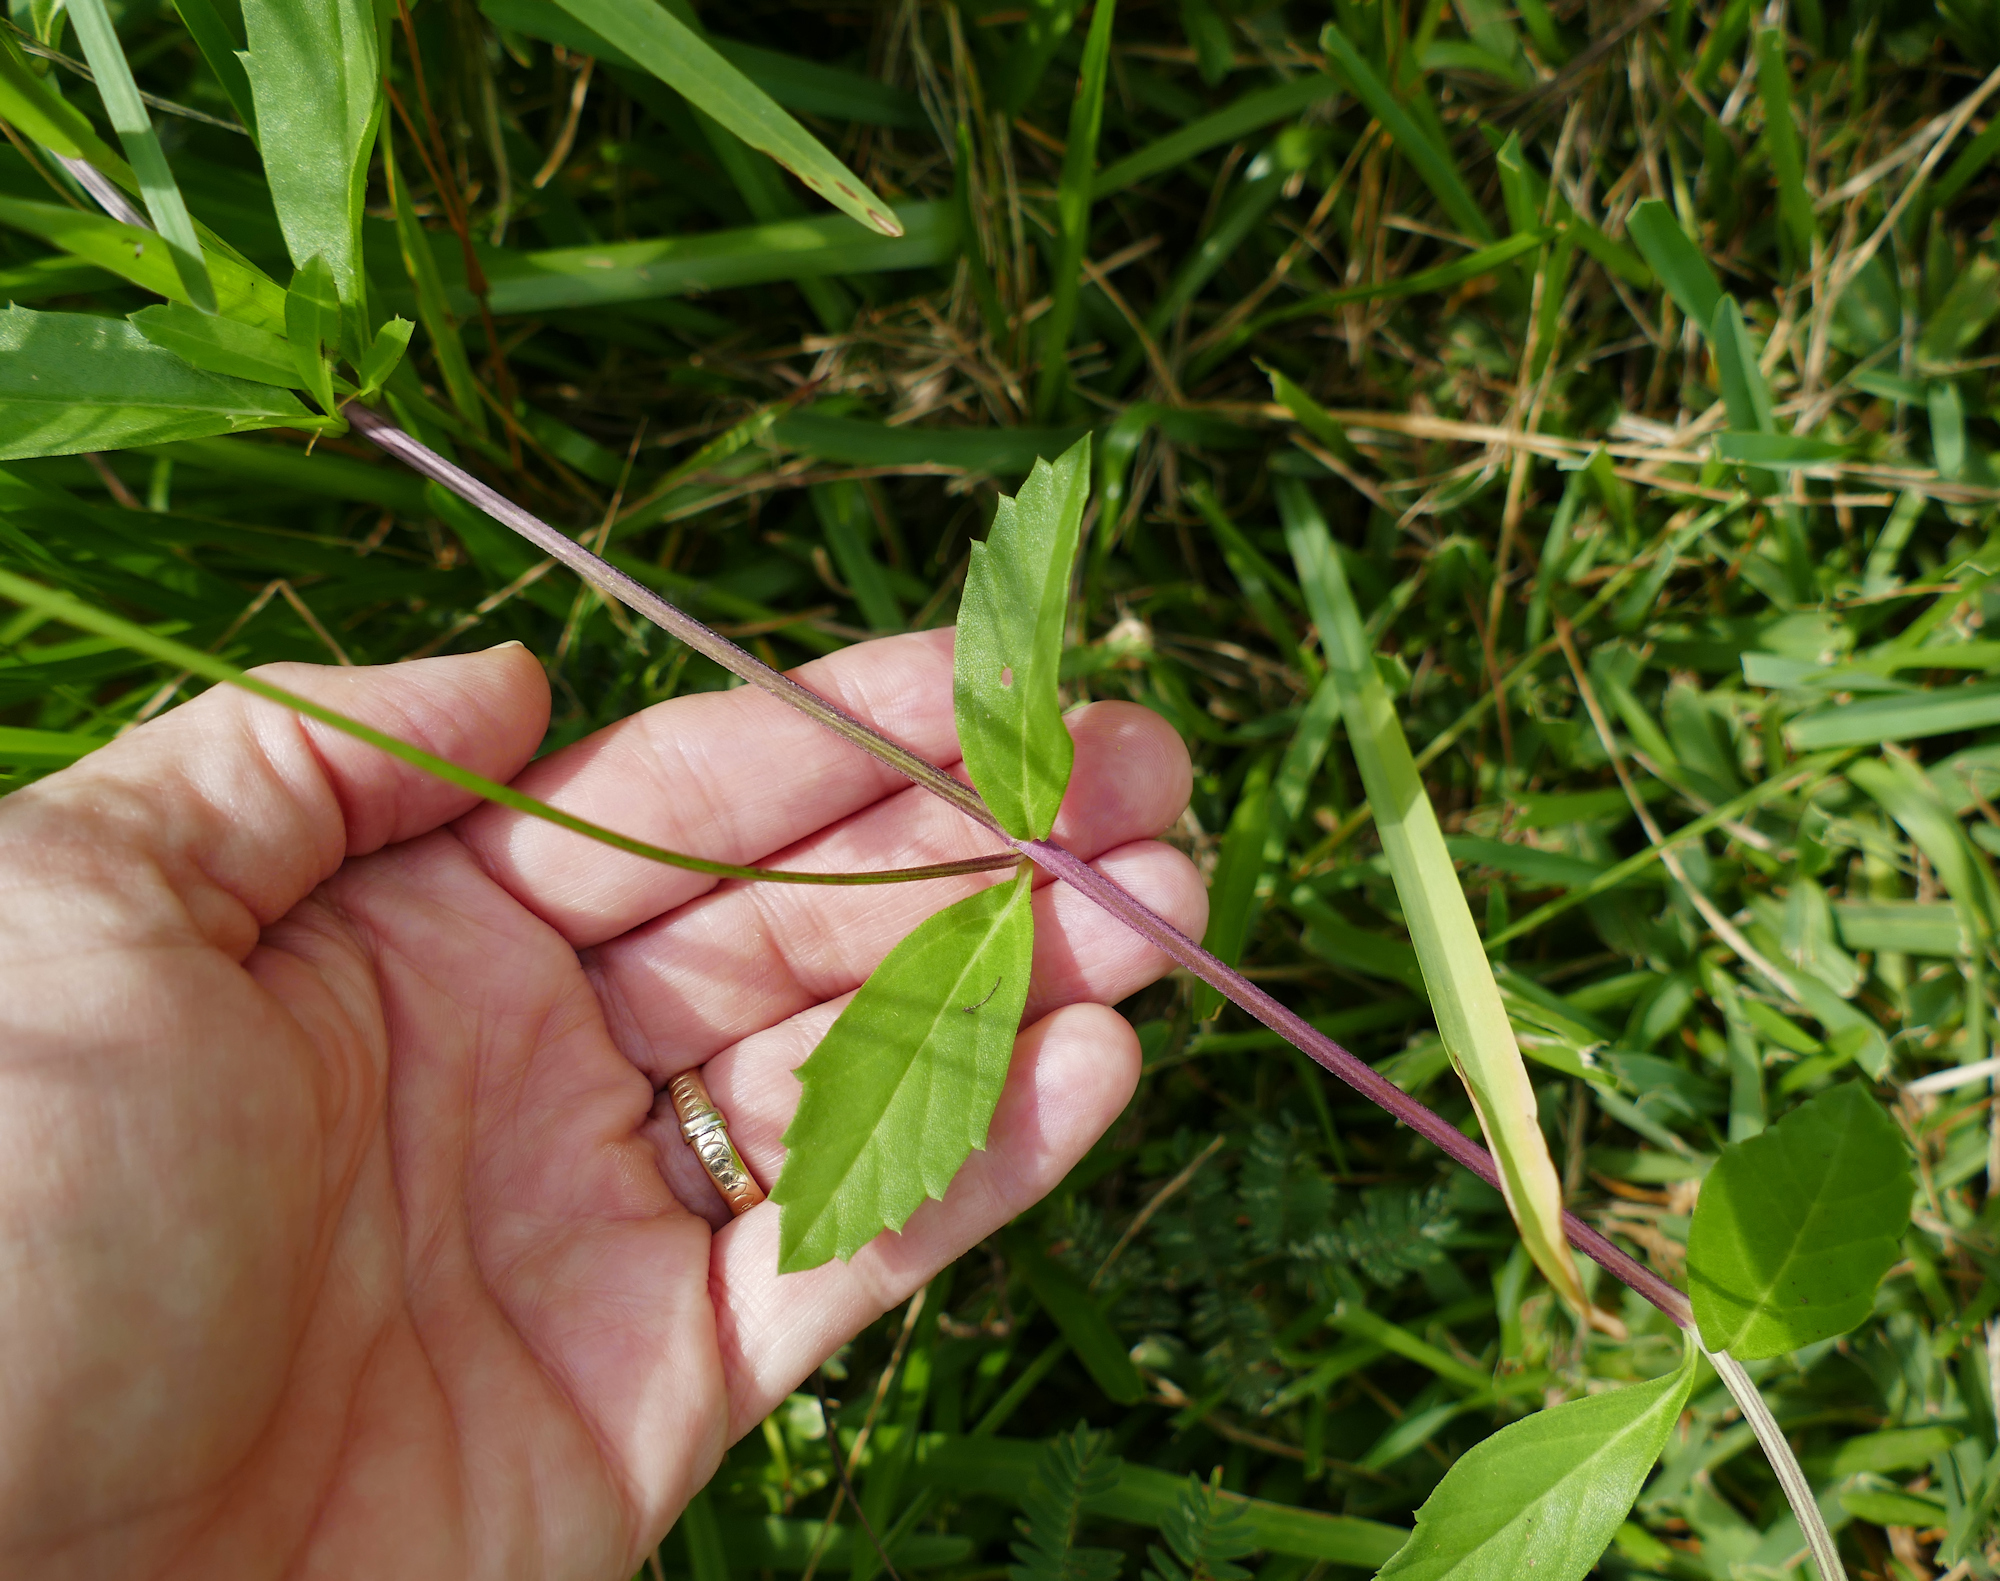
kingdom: Plantae
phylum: Tracheophyta
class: Magnoliopsida
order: Lamiales
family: Verbenaceae
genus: Phyla
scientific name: Phyla lanceolata
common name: Northern fogfruit
